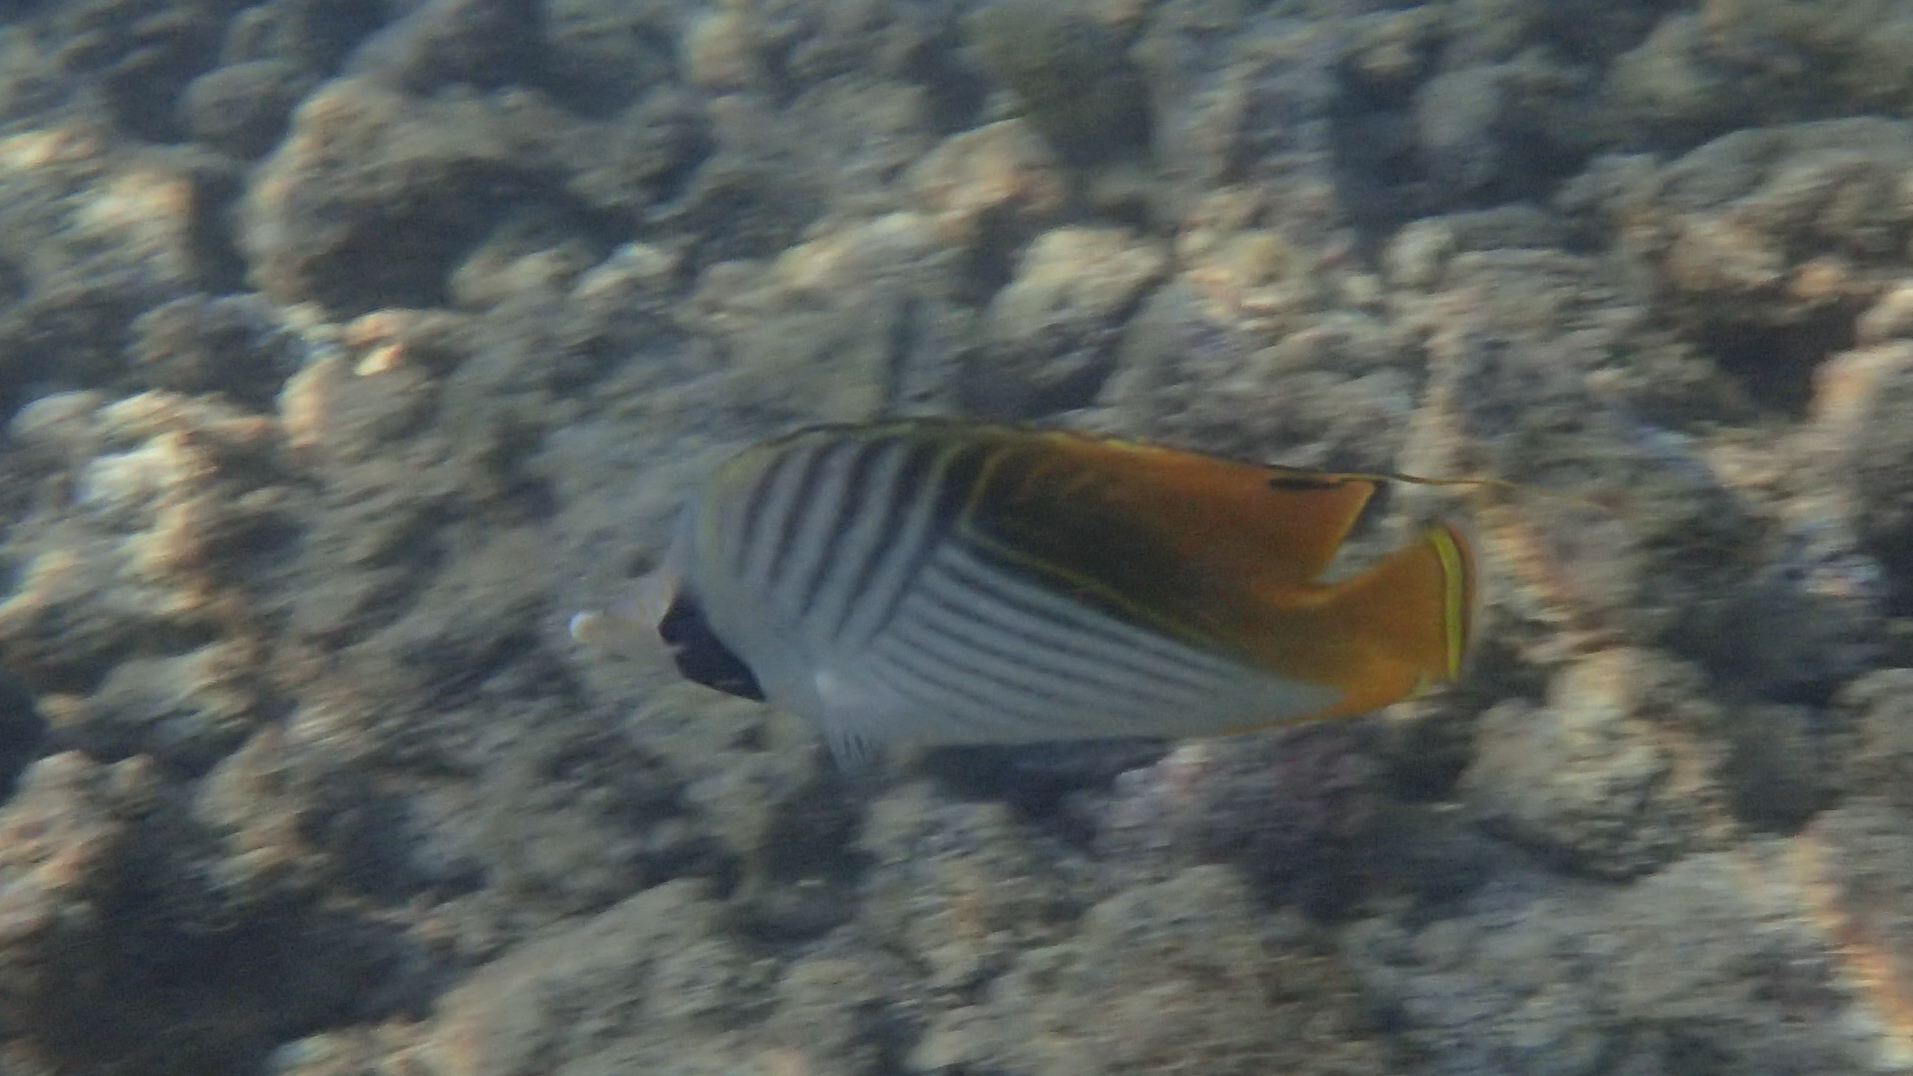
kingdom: Animalia
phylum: Chordata
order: Perciformes
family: Chaetodontidae
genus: Chaetodon
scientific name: Chaetodon auriga
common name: Threadfin butterflyfish
